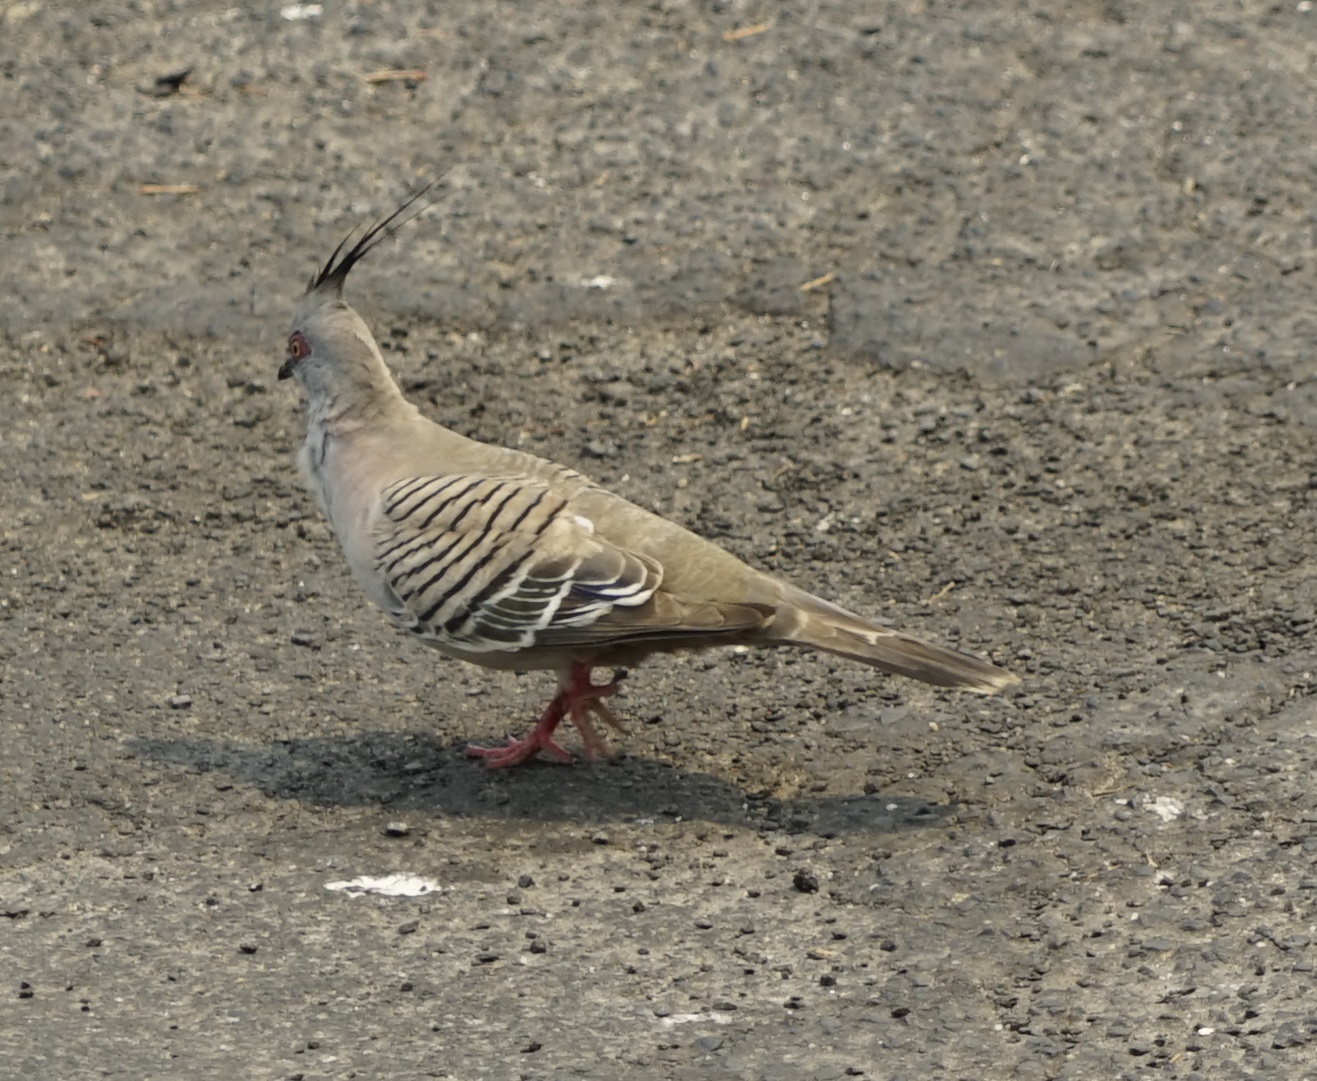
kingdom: Animalia
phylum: Chordata
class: Aves
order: Columbiformes
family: Columbidae
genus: Ocyphaps
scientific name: Ocyphaps lophotes
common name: Crested pigeon
